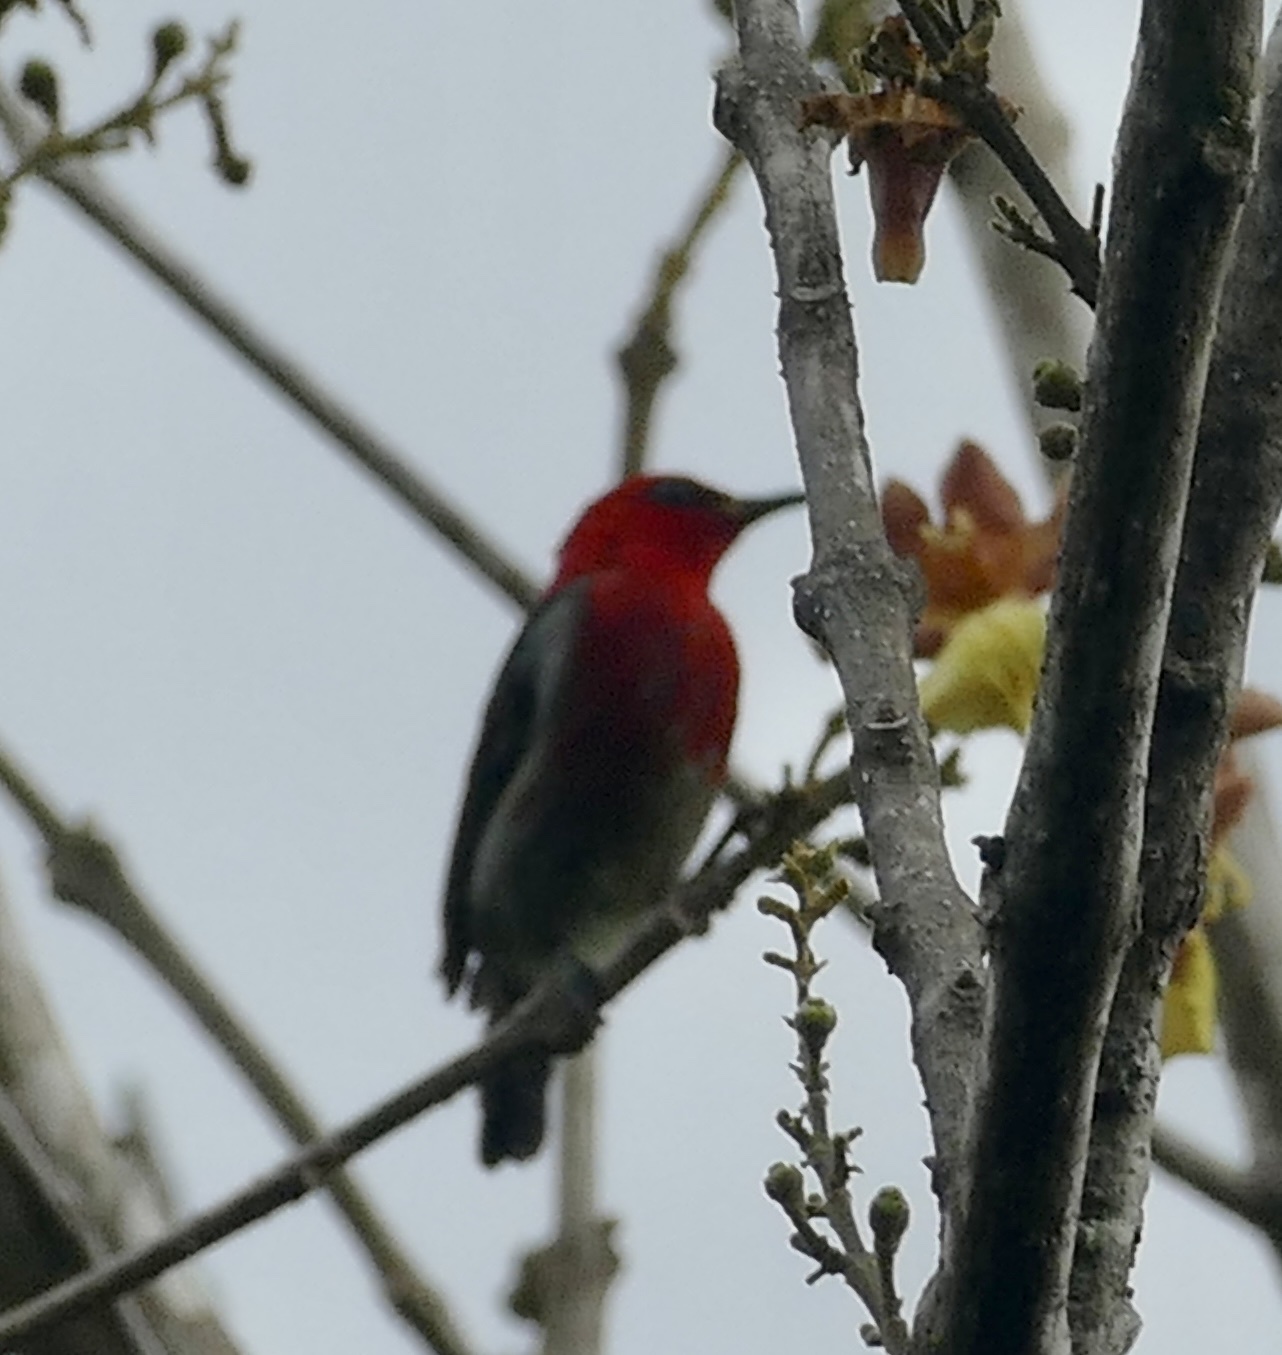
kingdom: Animalia
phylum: Chordata
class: Aves
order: Passeriformes
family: Meliphagidae
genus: Myzomela
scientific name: Myzomela chloroptera
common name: Sulawesi myzomela
